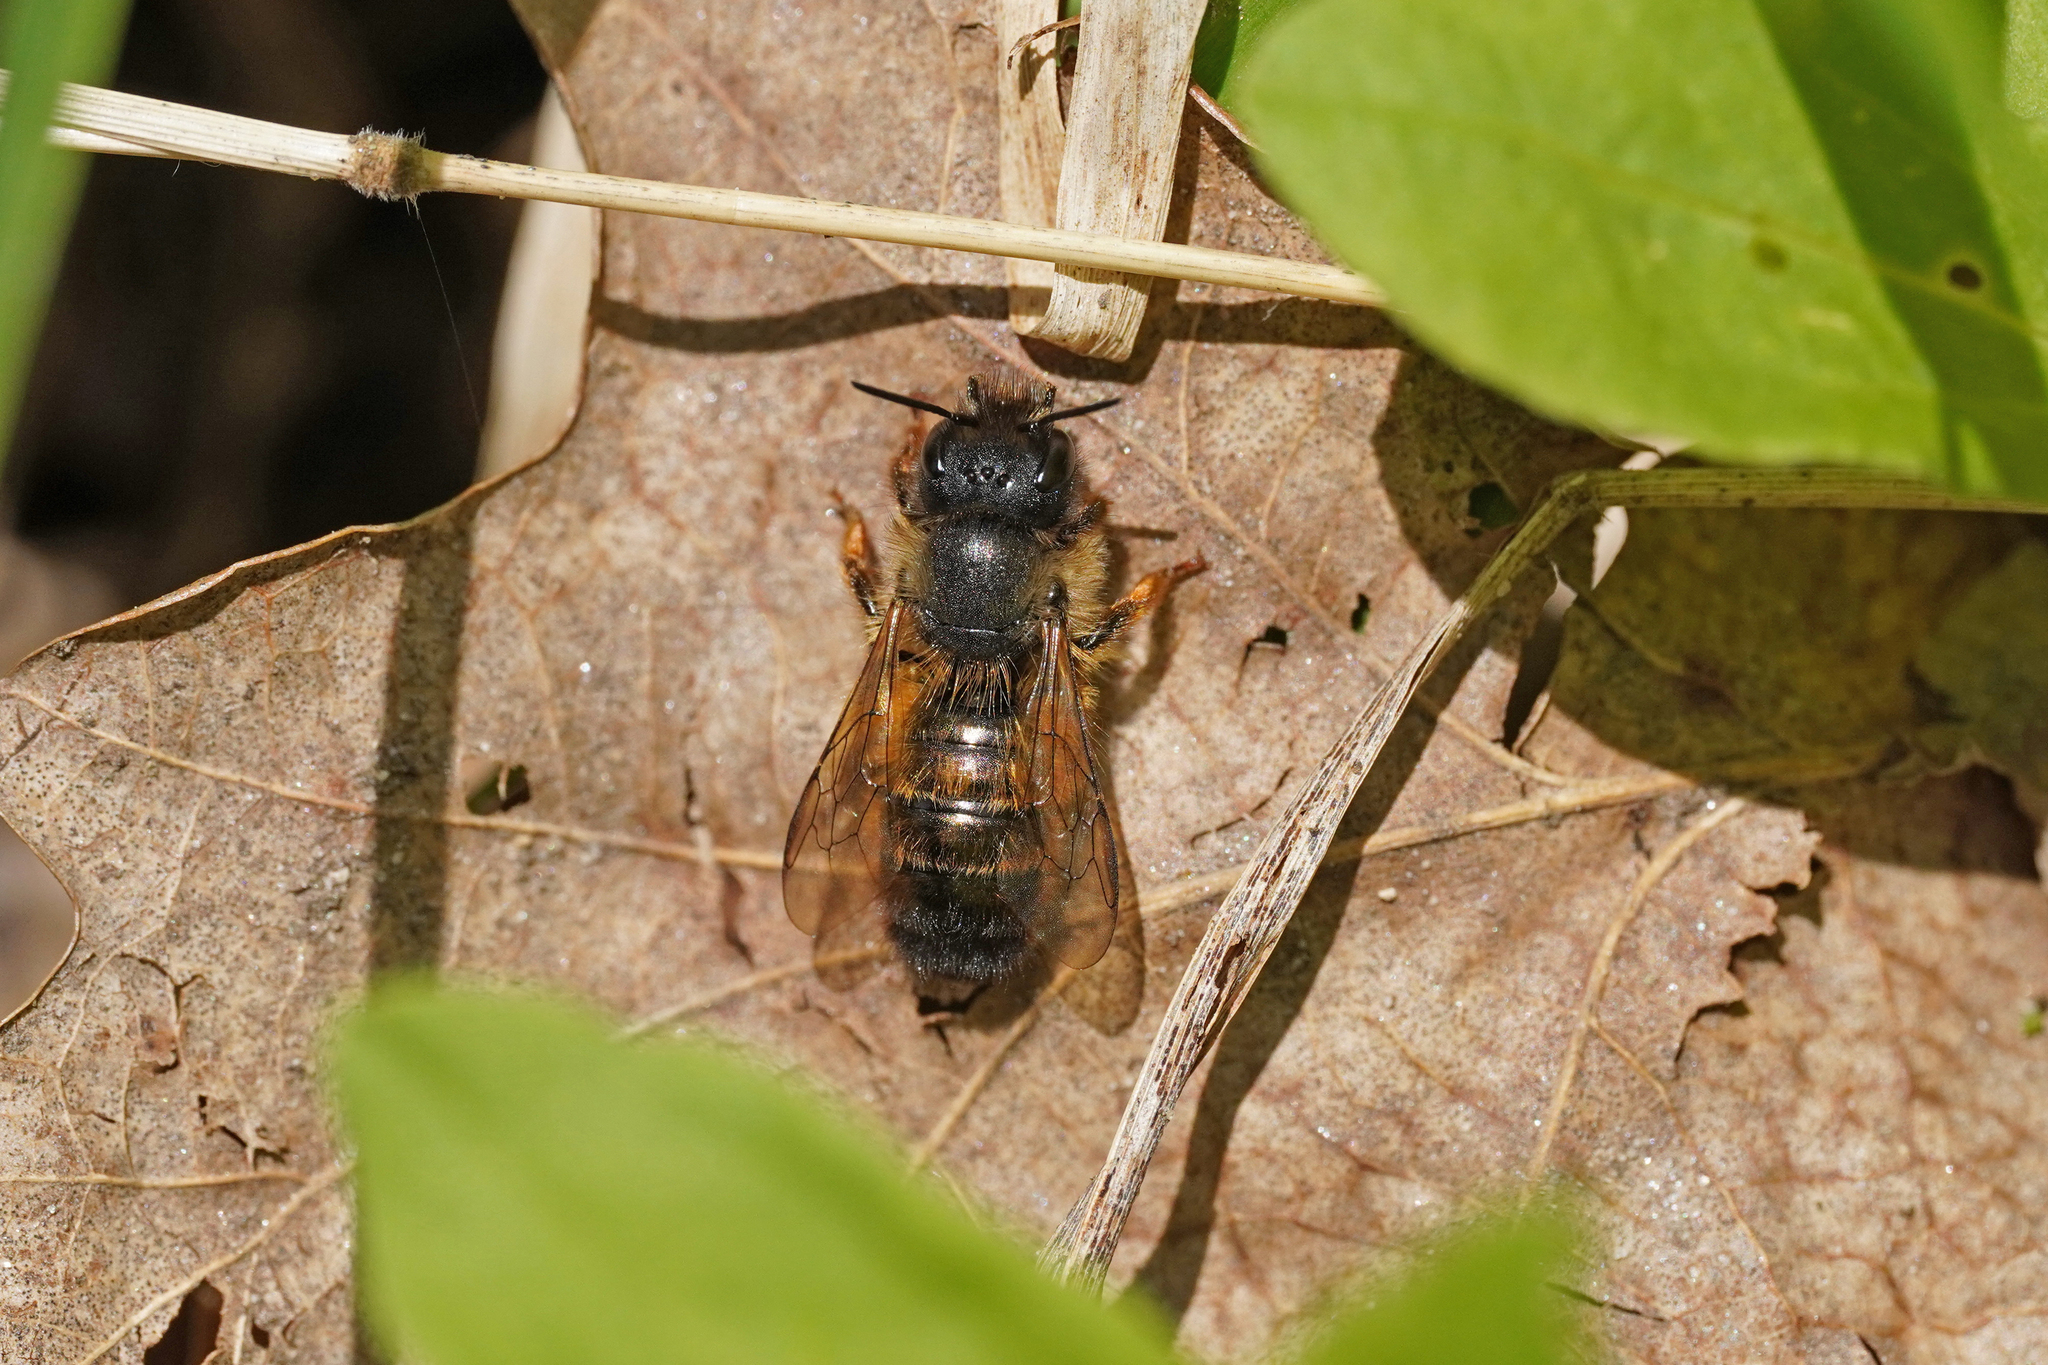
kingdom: Animalia
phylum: Arthropoda
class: Insecta
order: Hymenoptera
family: Megachilidae
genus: Osmia
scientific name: Osmia bicornis
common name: Red mason bee
